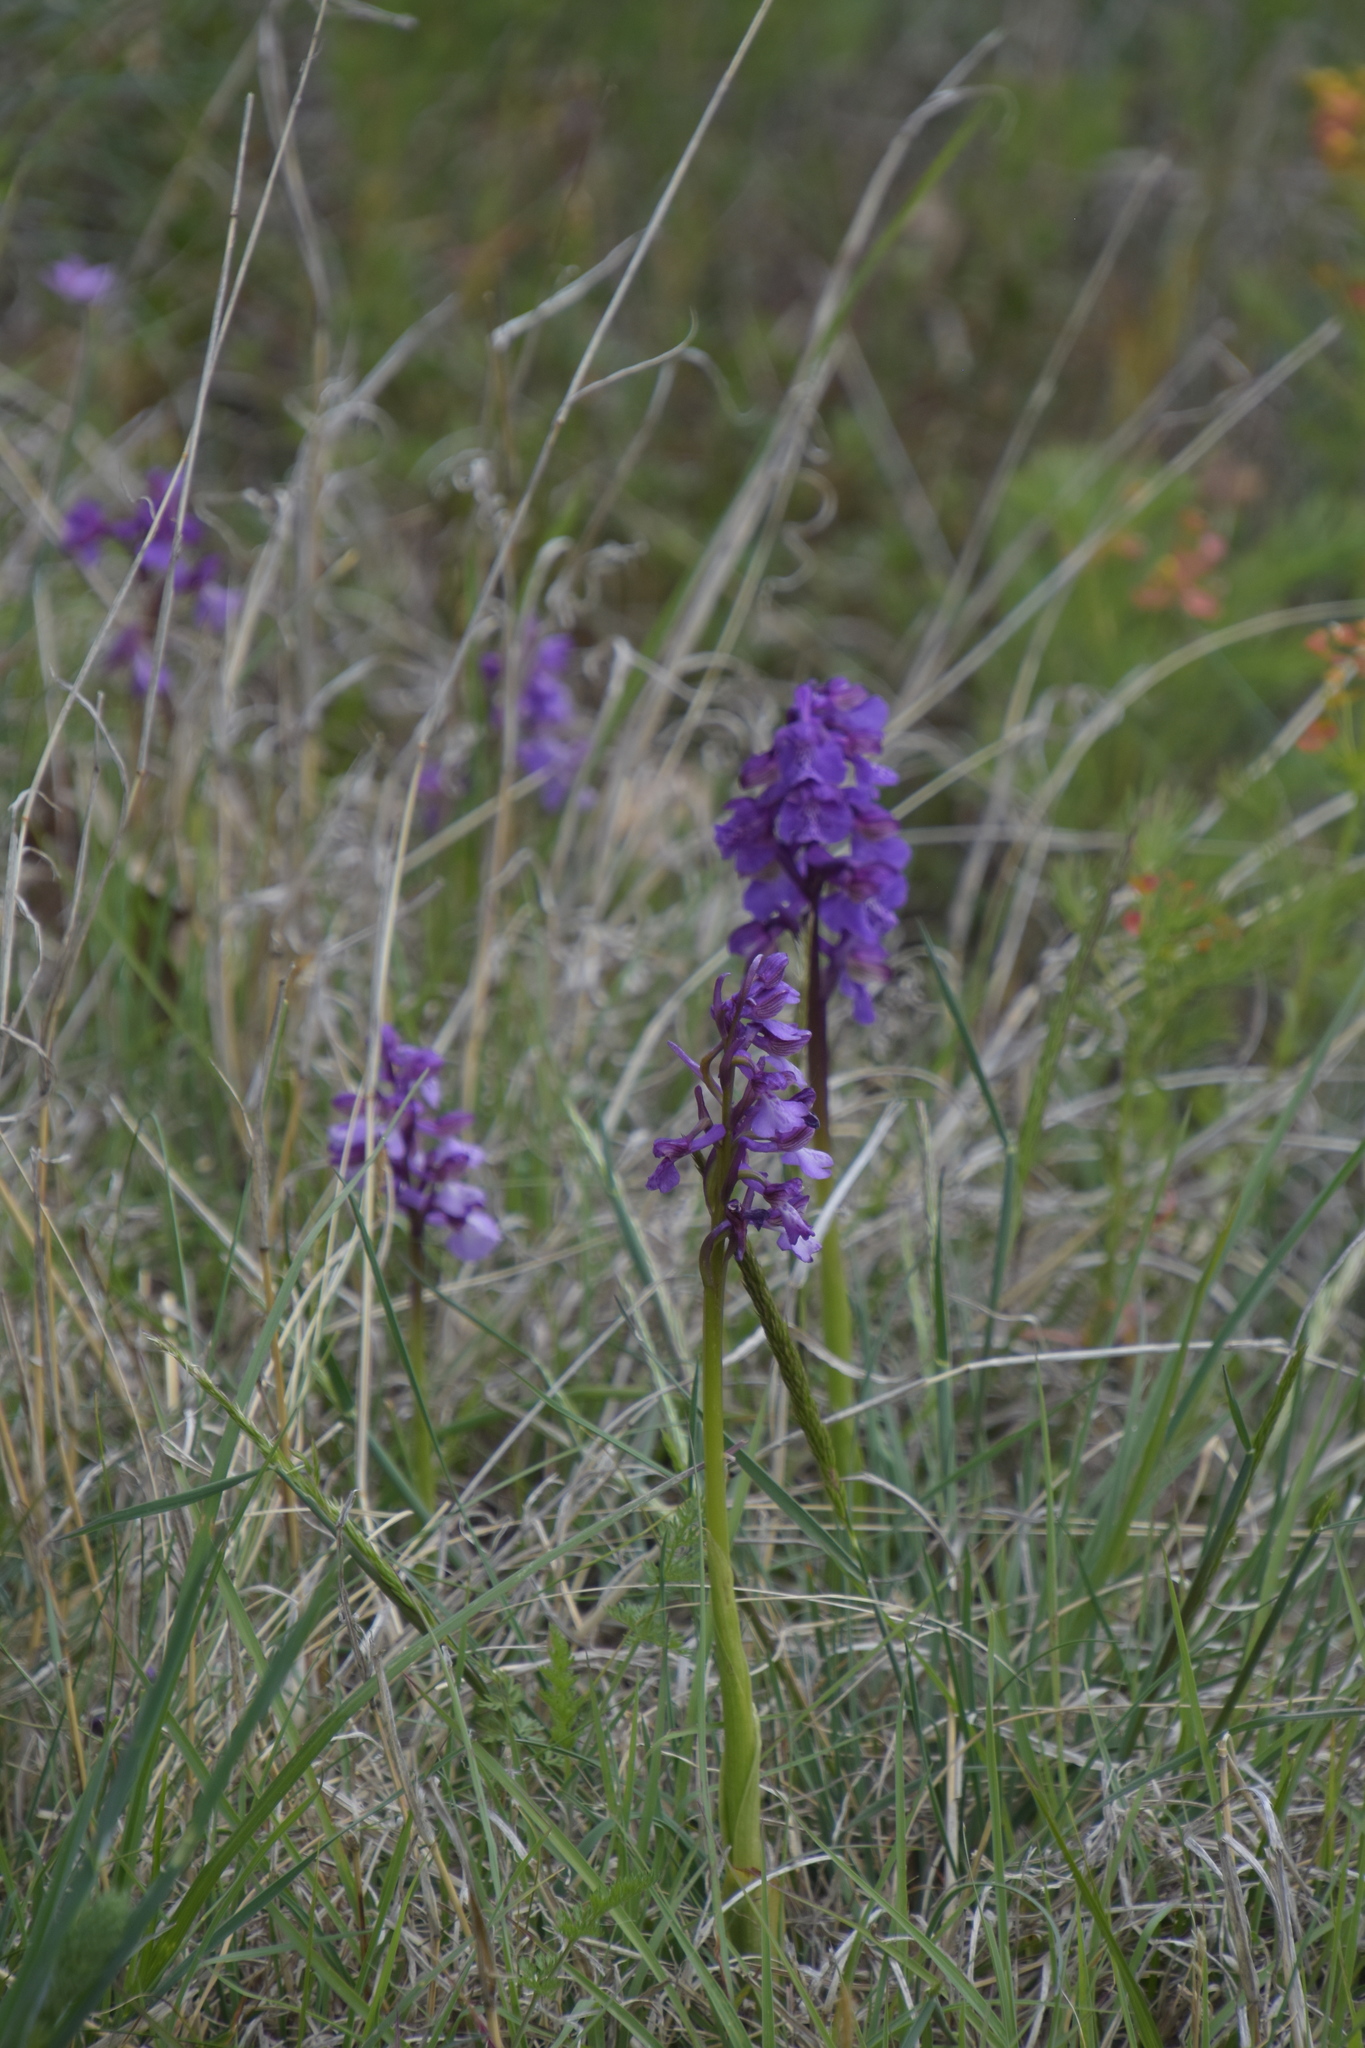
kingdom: Plantae
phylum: Tracheophyta
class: Liliopsida
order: Asparagales
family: Orchidaceae
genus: Anacamptis
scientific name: Anacamptis morio
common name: Green-winged orchid
